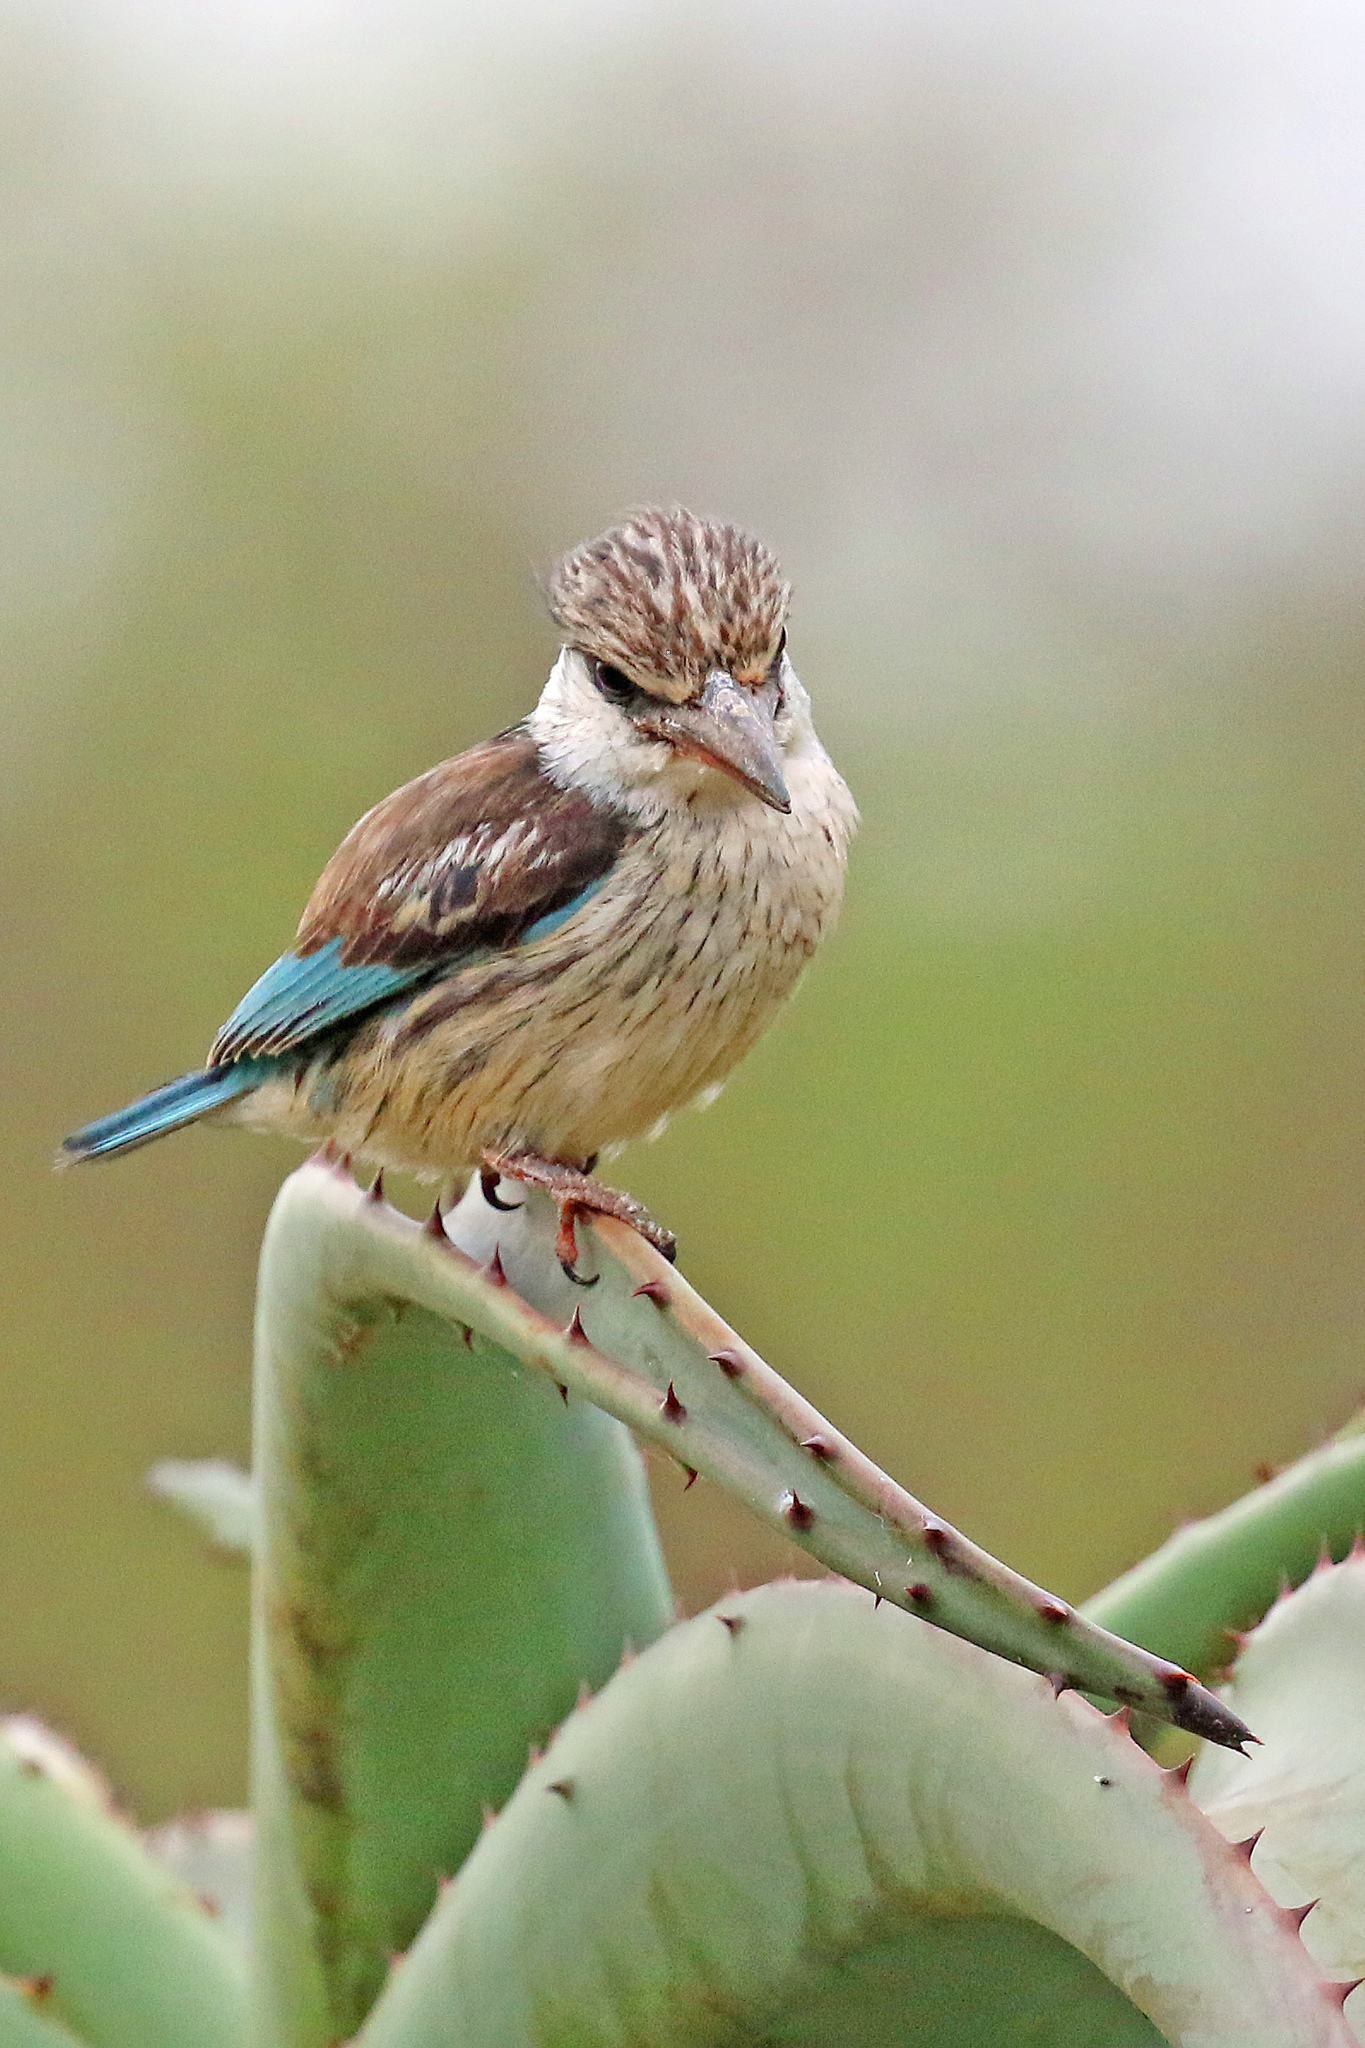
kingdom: Animalia
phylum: Chordata
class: Aves
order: Coraciiformes
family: Alcedinidae
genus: Halcyon
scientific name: Halcyon chelicuti
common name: Striped kingfisher
